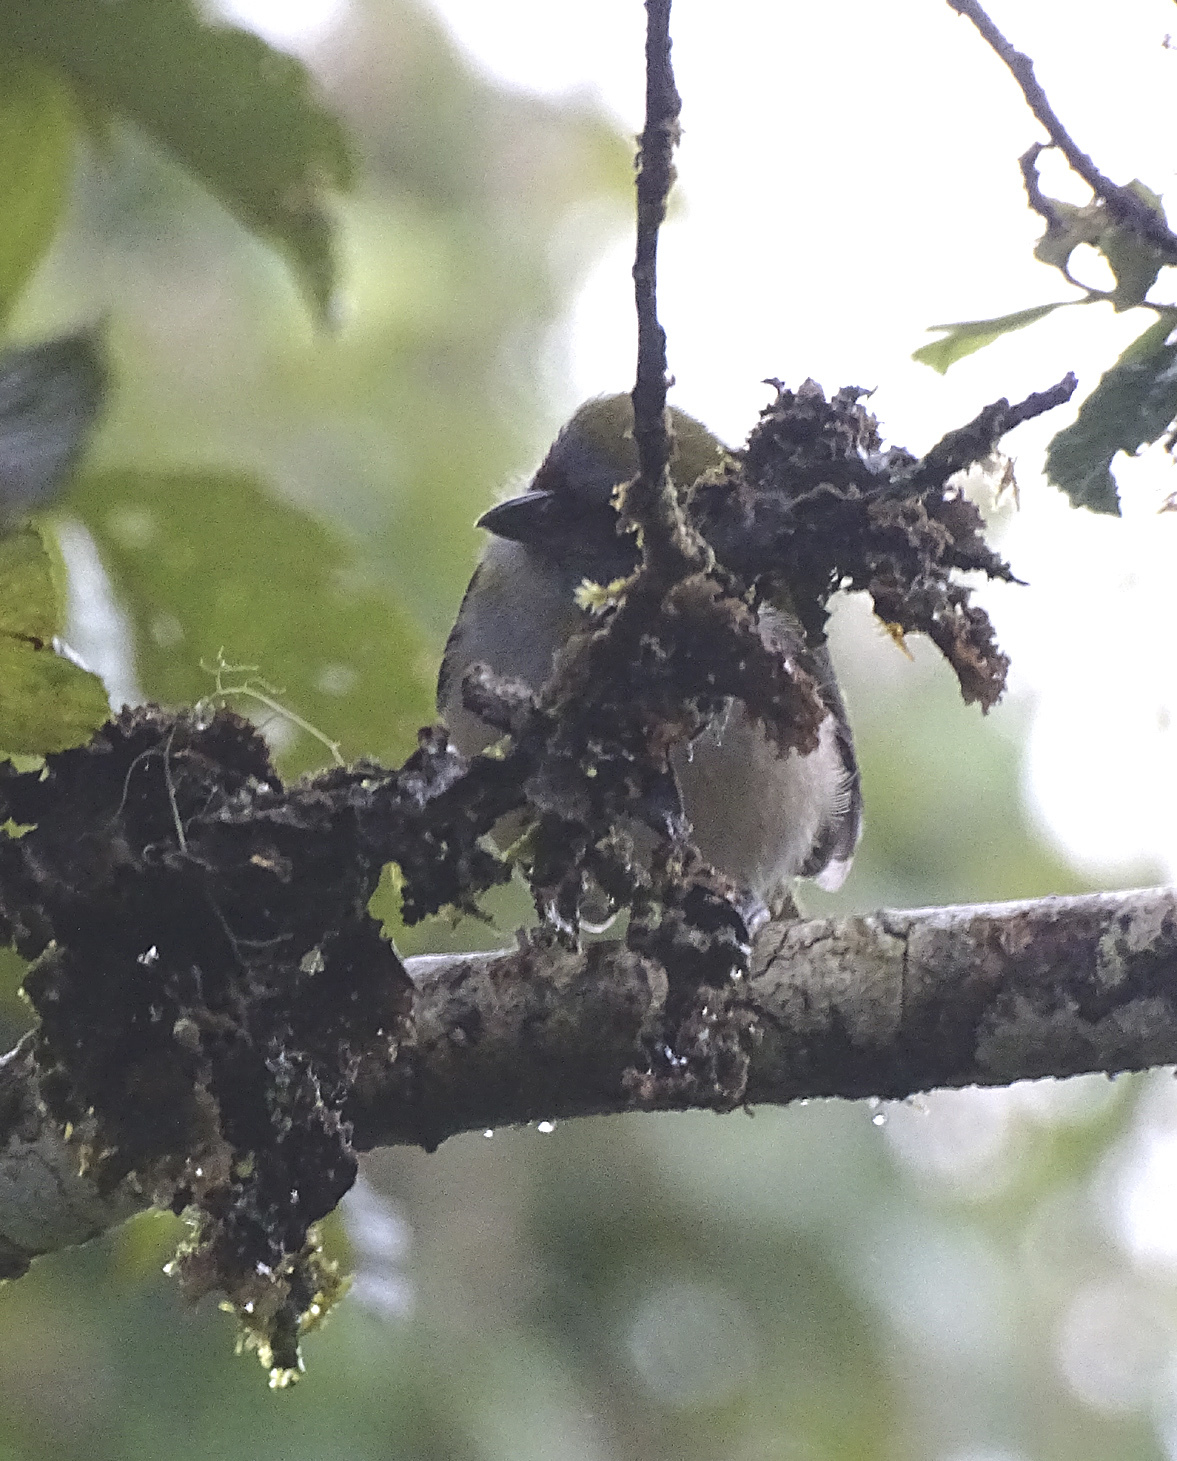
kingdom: Animalia
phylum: Chordata
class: Aves
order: Passeriformes
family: Vireonidae
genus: Cyclarhis
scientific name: Cyclarhis nigrirostris
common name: Black-billed peppershrike
